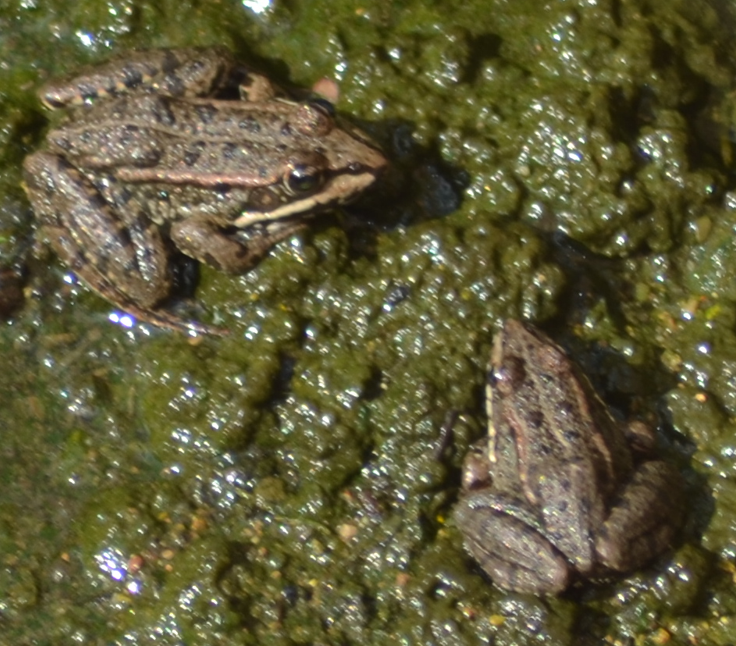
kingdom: Animalia
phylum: Chordata
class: Amphibia
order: Anura
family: Ranidae
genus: Pelophylax
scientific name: Pelophylax perezi
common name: Perez's frog
